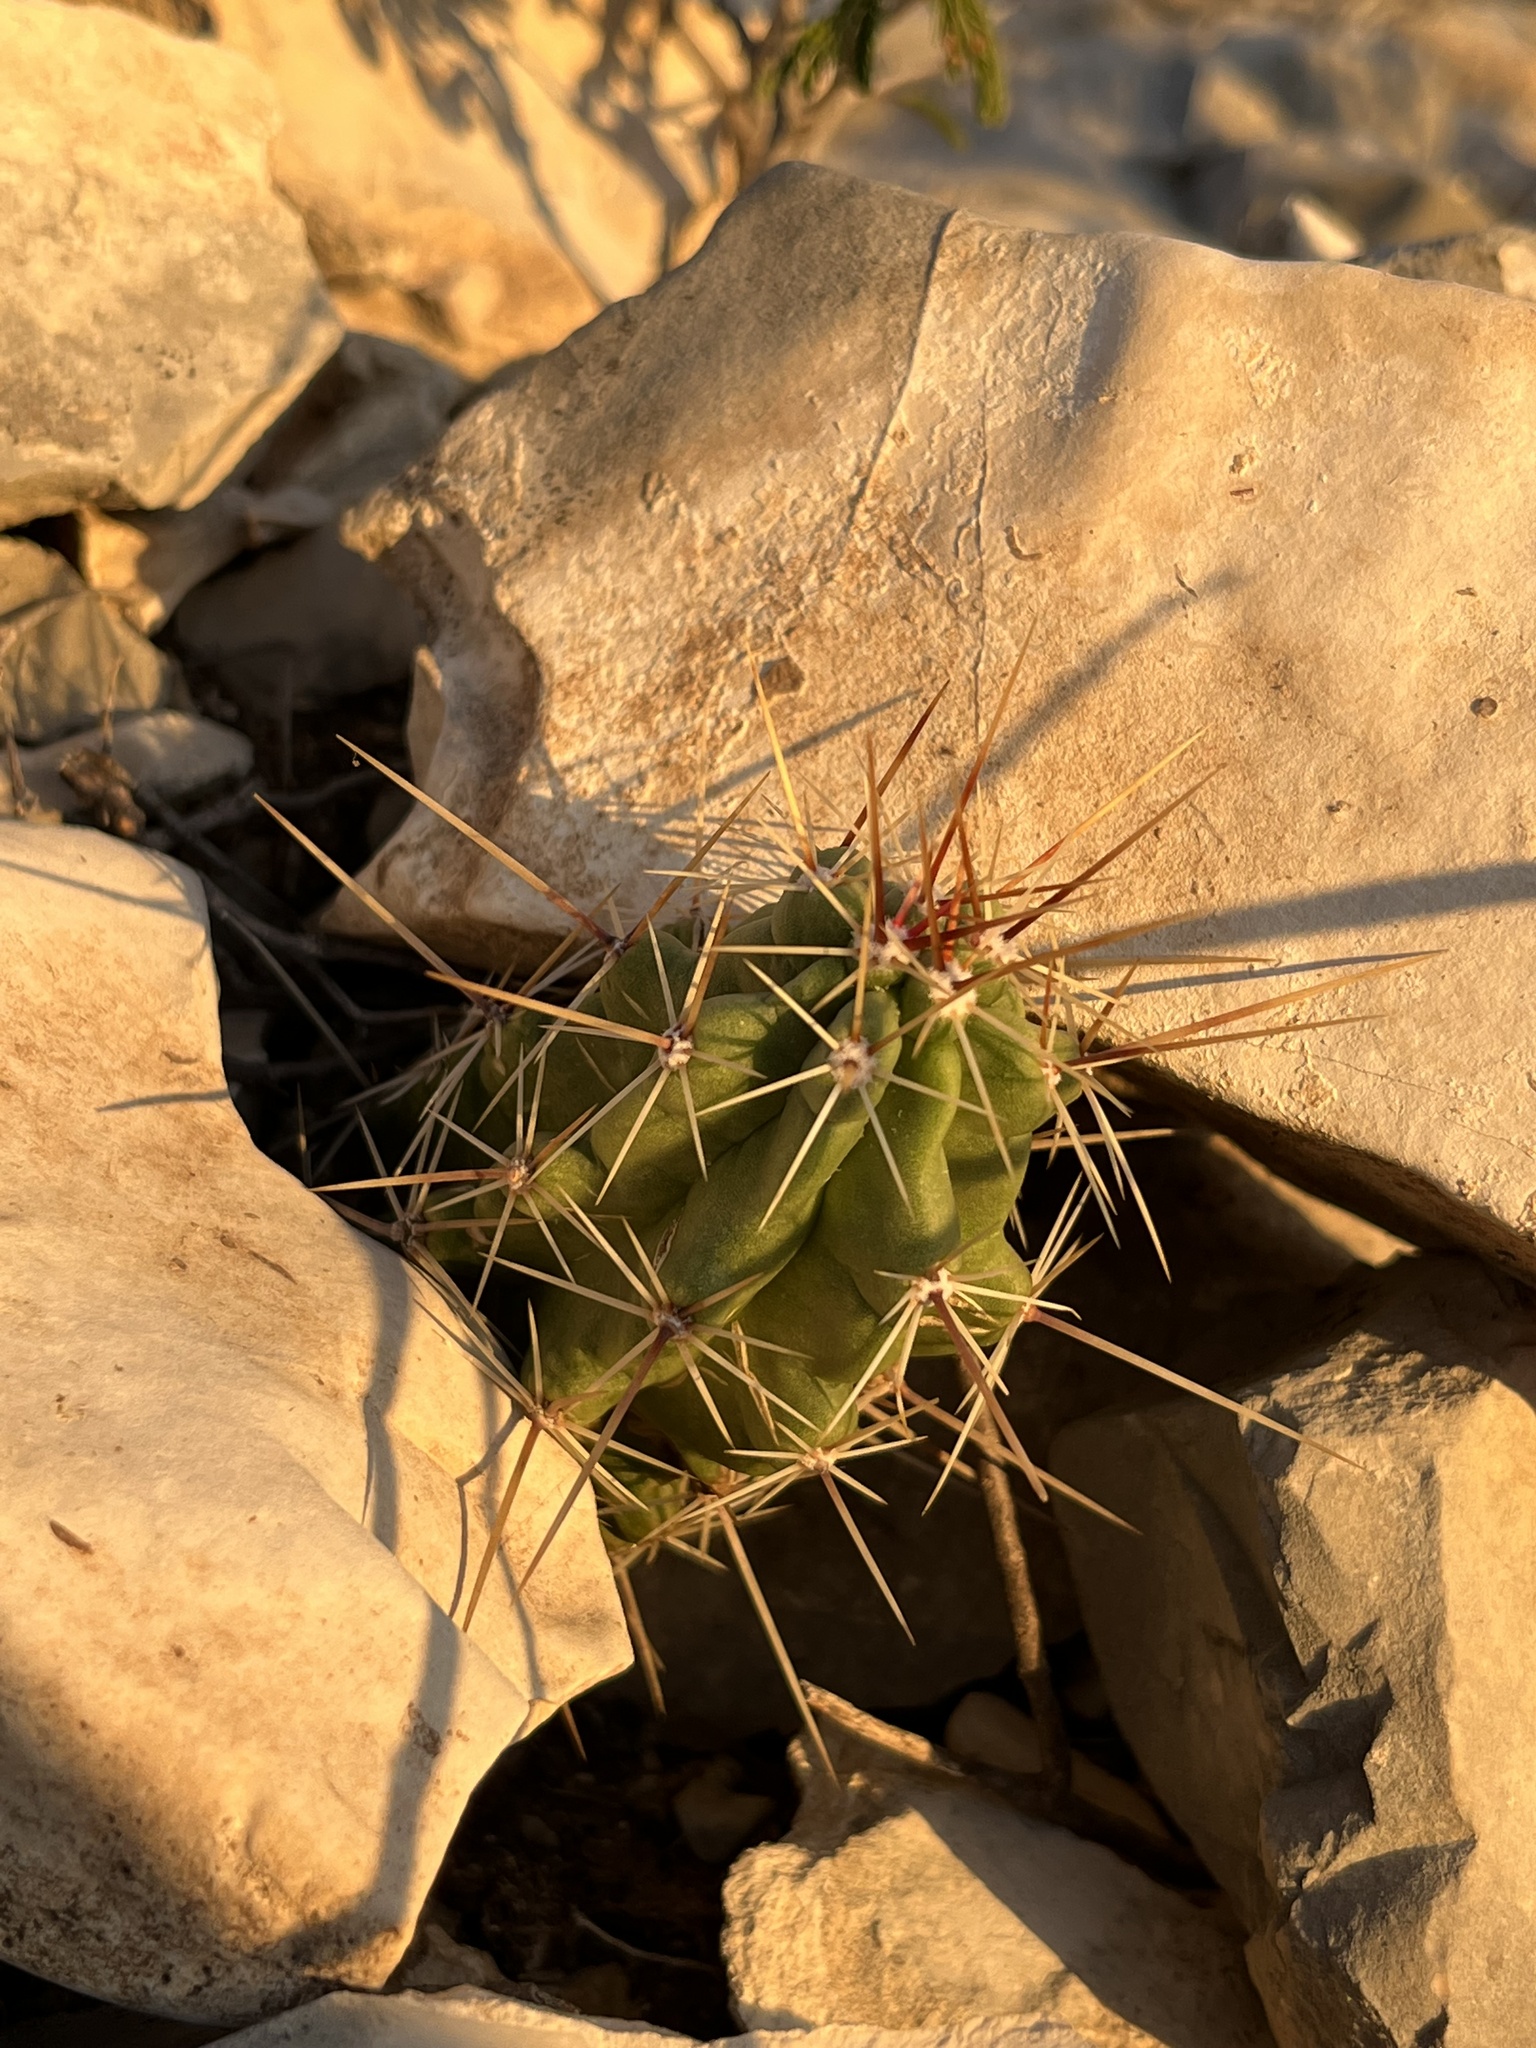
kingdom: Plantae
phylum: Tracheophyta
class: Magnoliopsida
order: Caryophyllales
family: Cactaceae
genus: Echinocereus
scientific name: Echinocereus enneacanthus
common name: Pitaya
